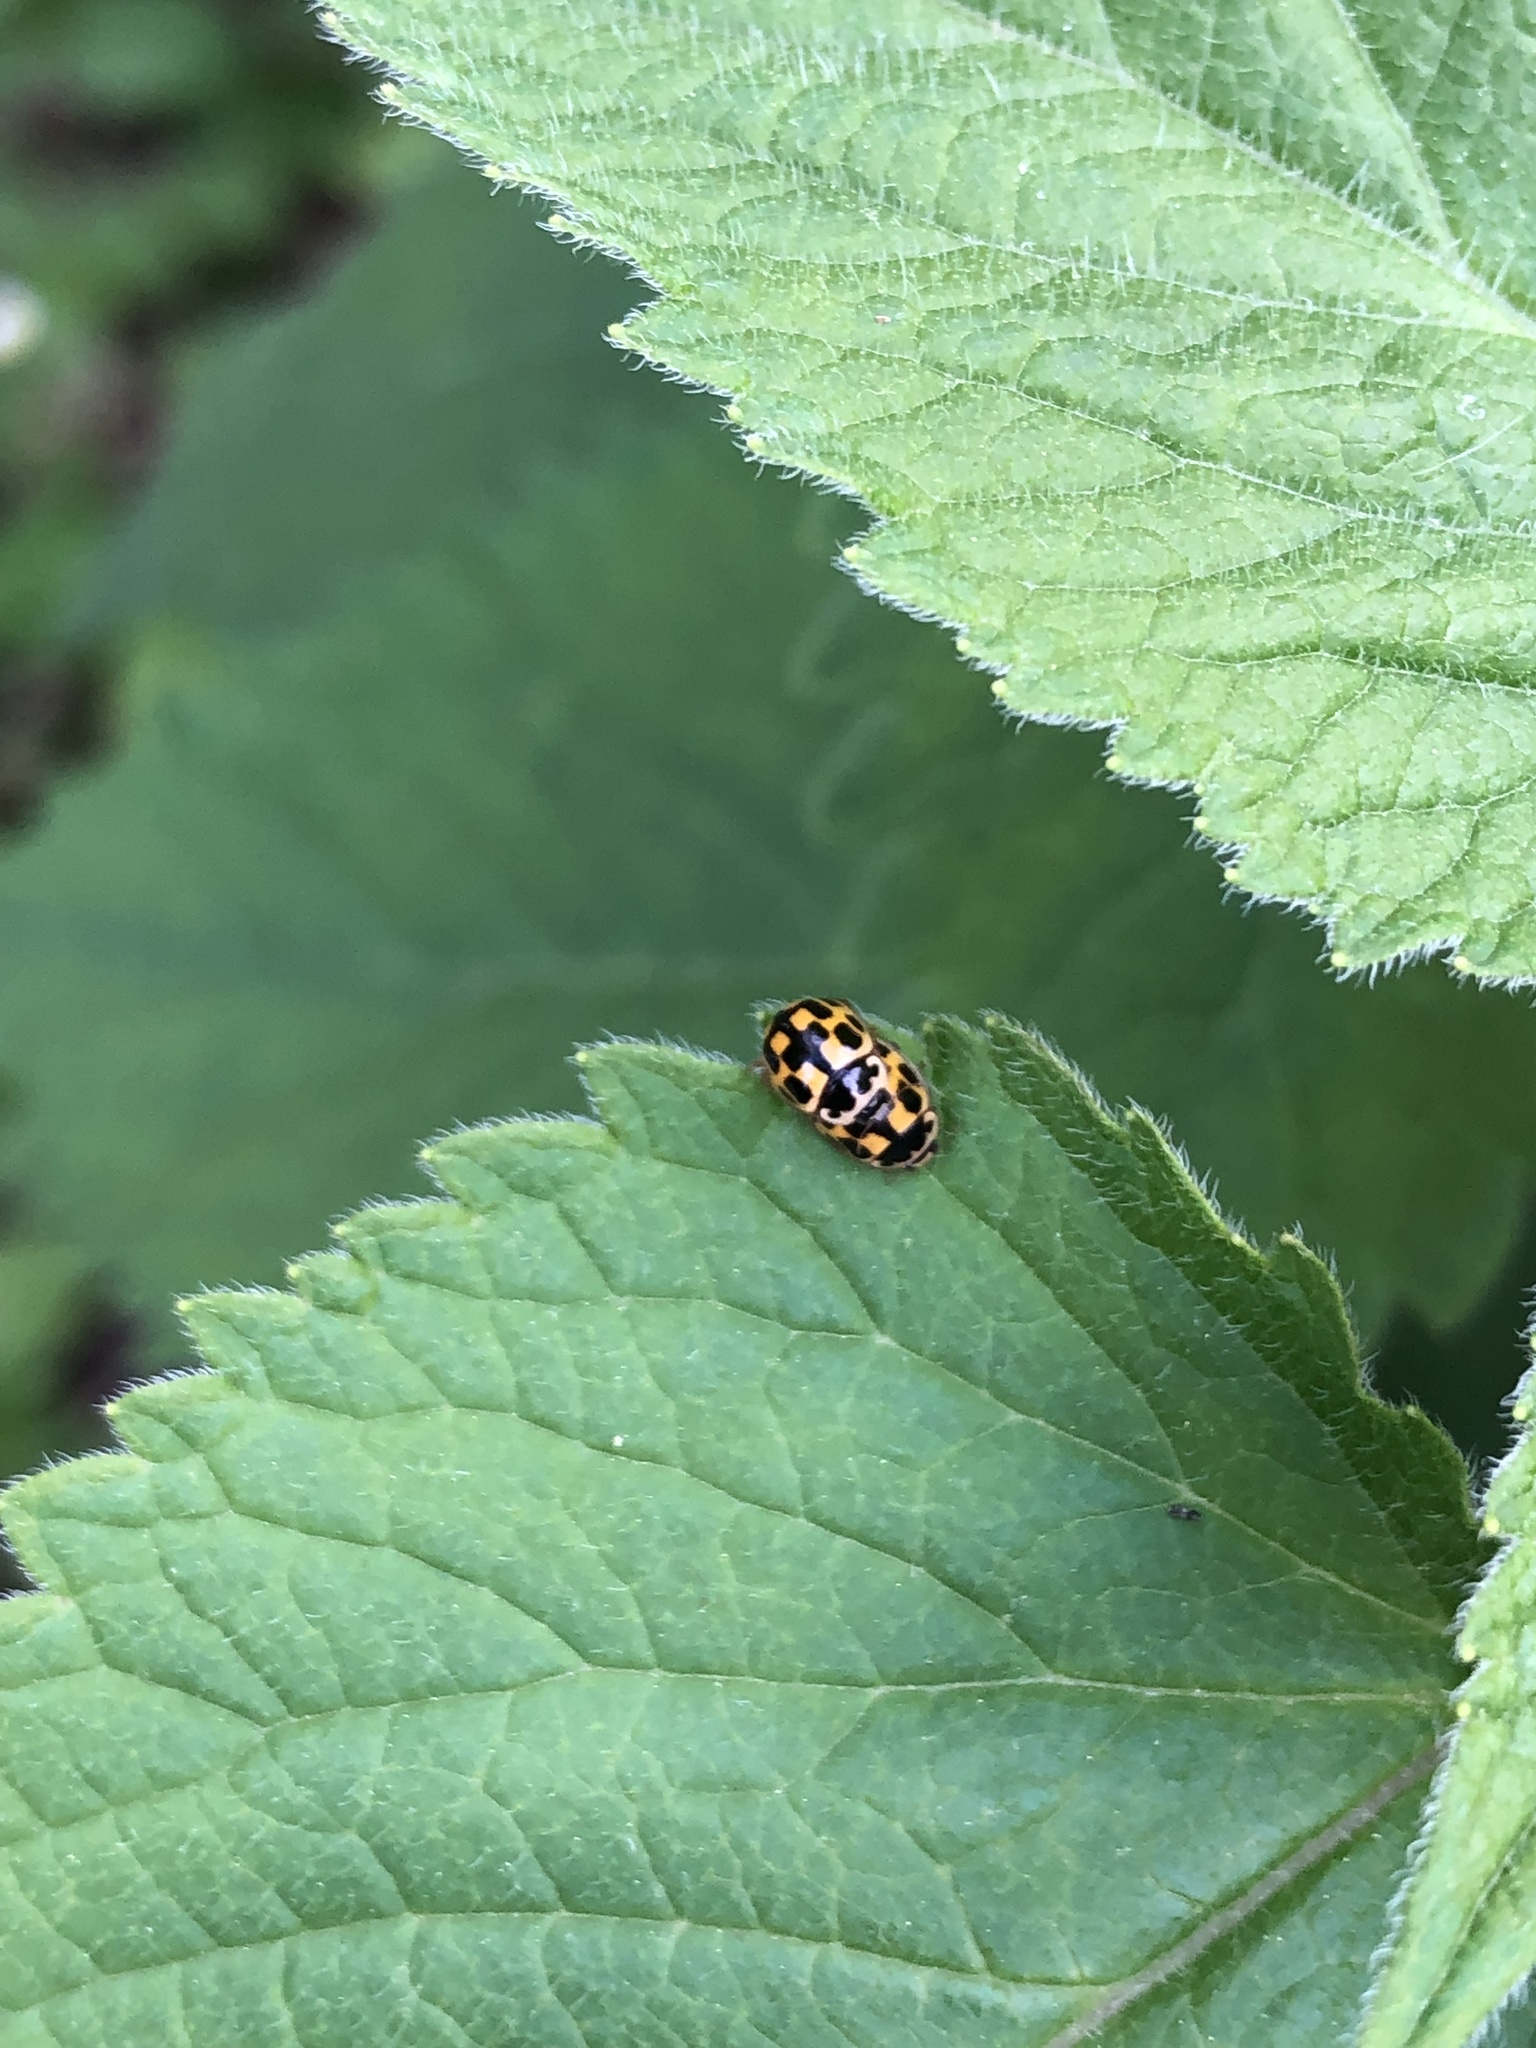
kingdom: Animalia
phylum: Arthropoda
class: Insecta
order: Coleoptera
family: Coccinellidae
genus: Propylaea
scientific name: Propylaea quatuordecimpunctata
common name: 14-spotted ladybird beetle
